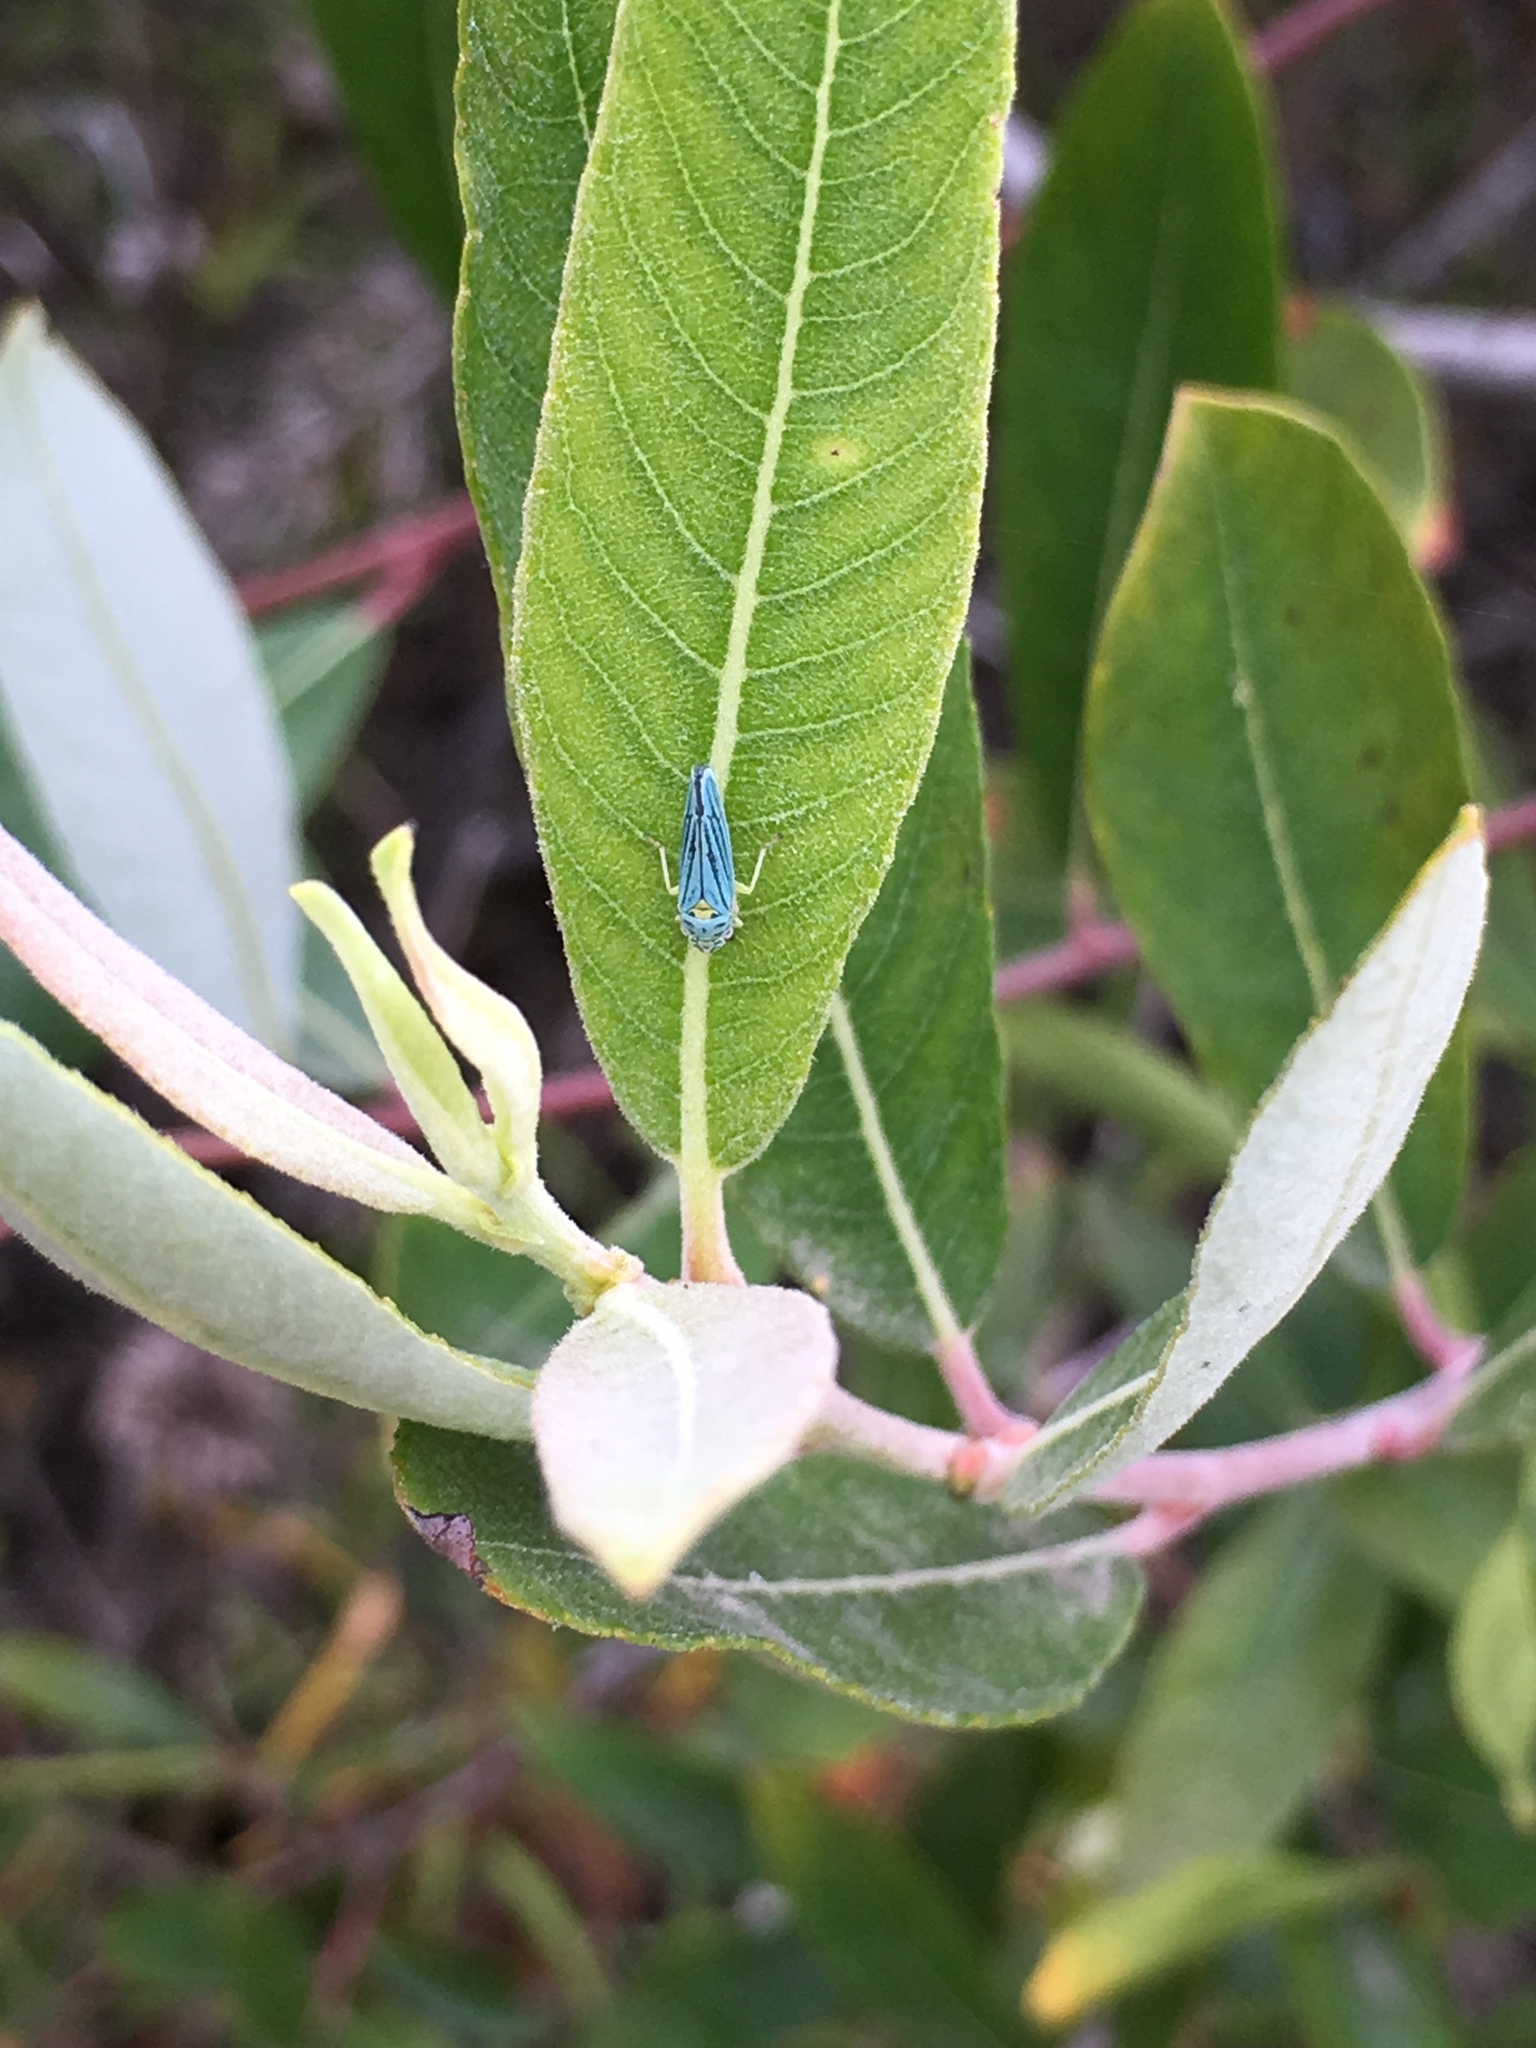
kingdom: Animalia
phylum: Arthropoda
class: Insecta
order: Hemiptera
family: Cicadellidae
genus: Graphocephala
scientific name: Graphocephala atropunctata
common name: Blue-green sharpshooter
